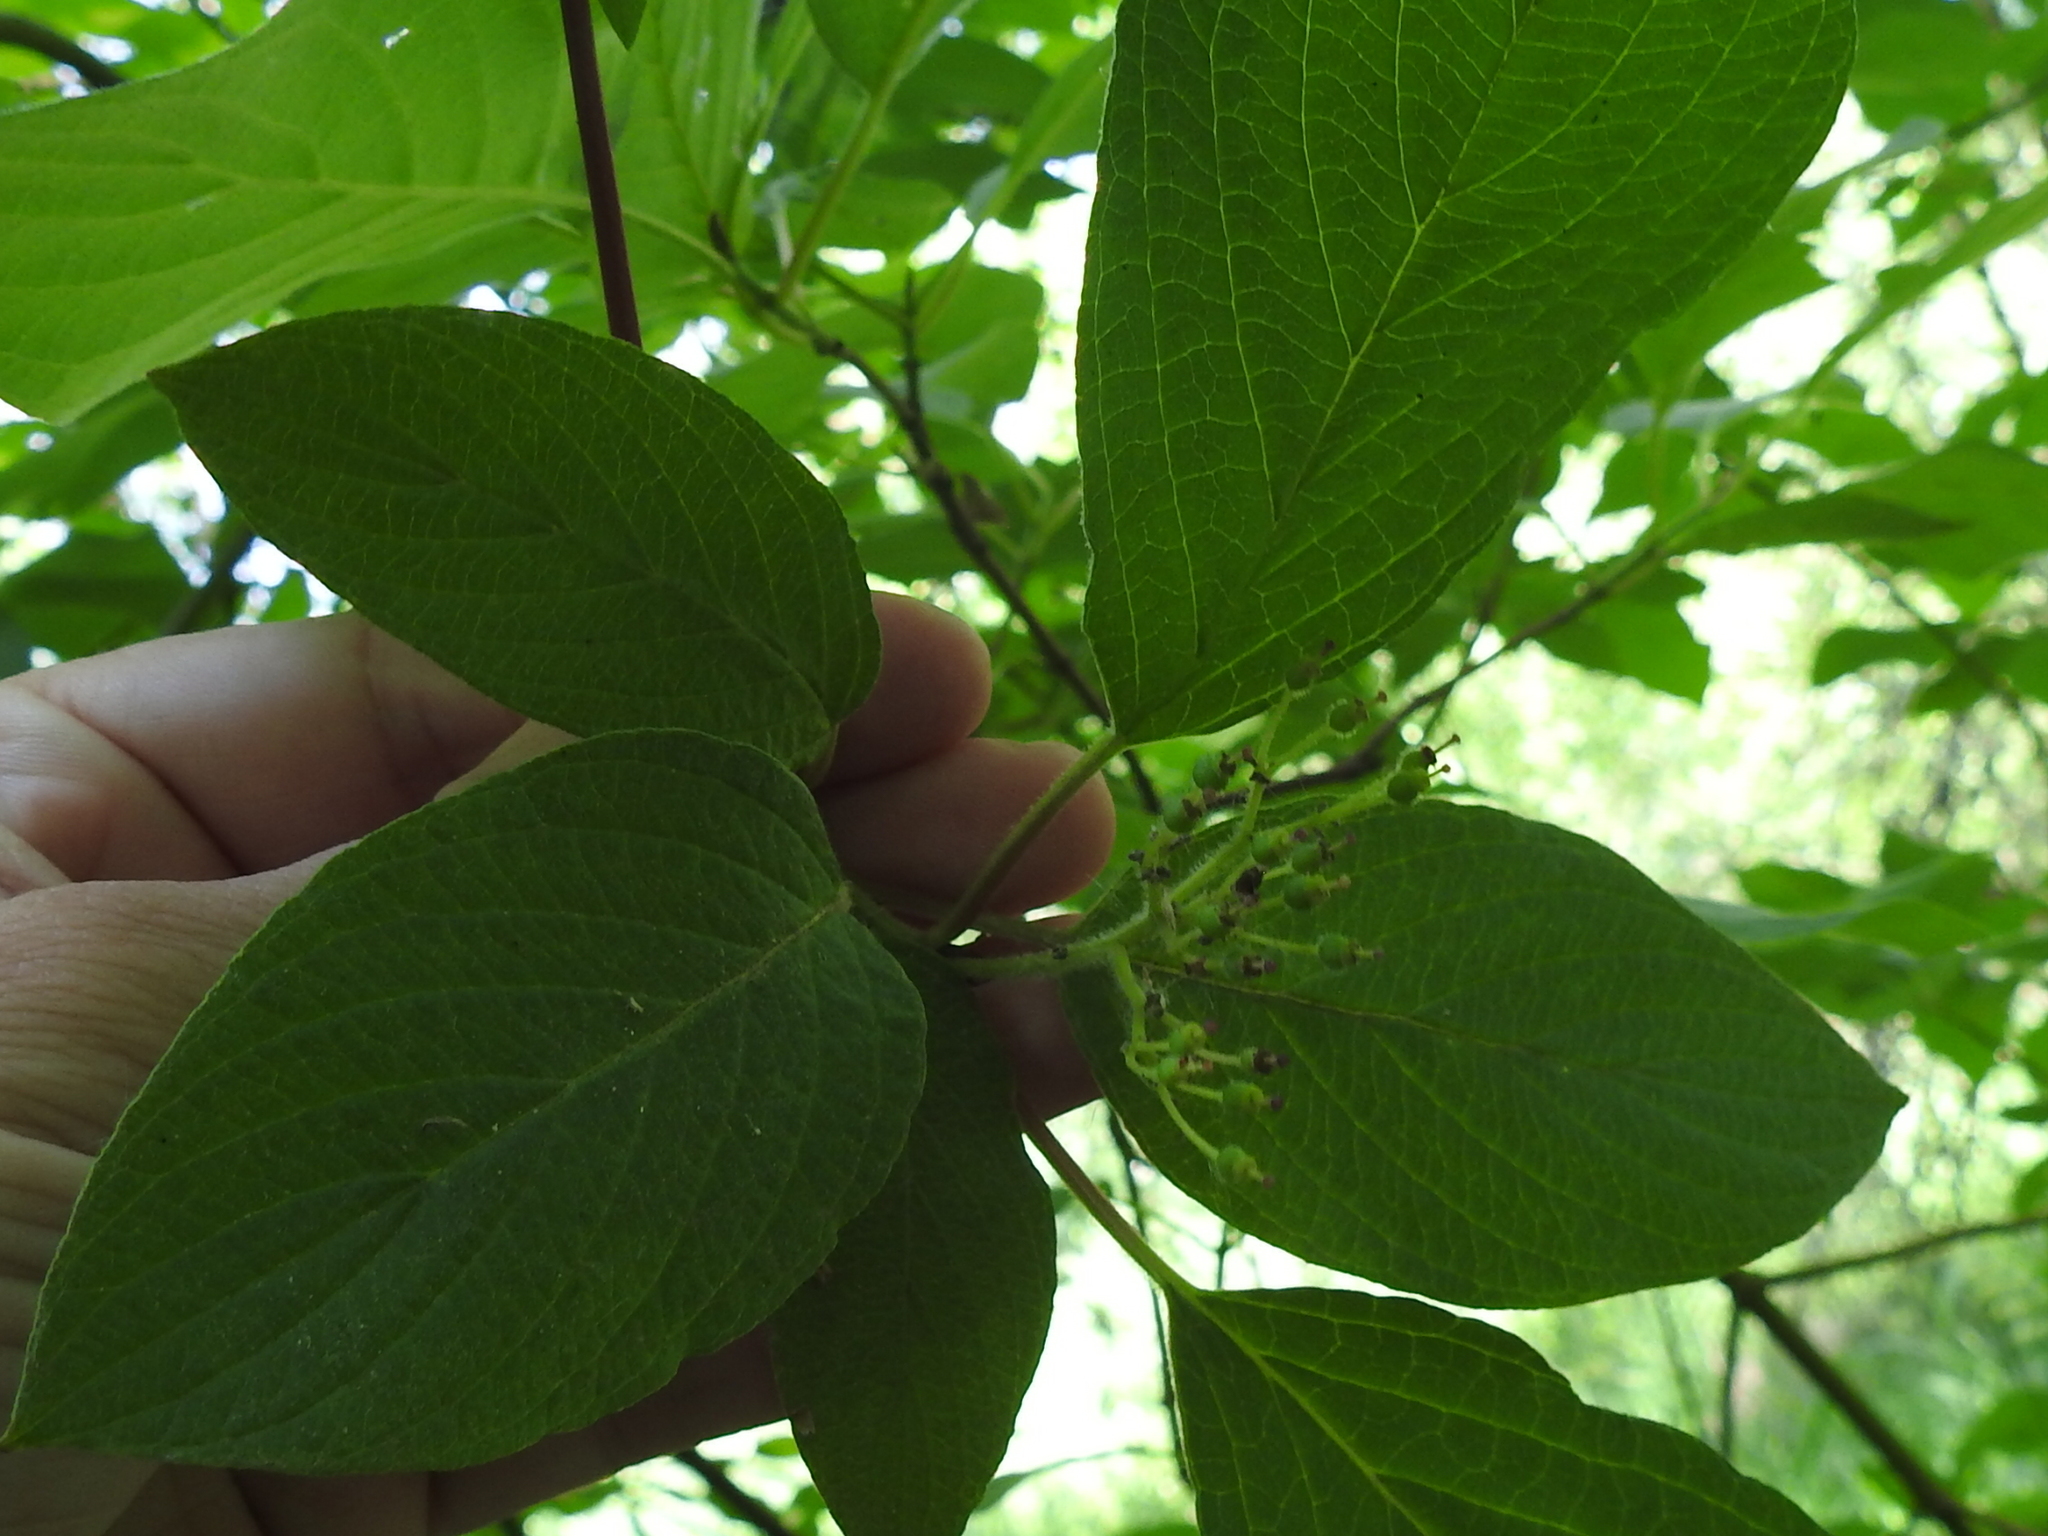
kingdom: Plantae
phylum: Tracheophyta
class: Magnoliopsida
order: Cornales
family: Cornaceae
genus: Cornus
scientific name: Cornus sericea
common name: Red-osier dogwood
